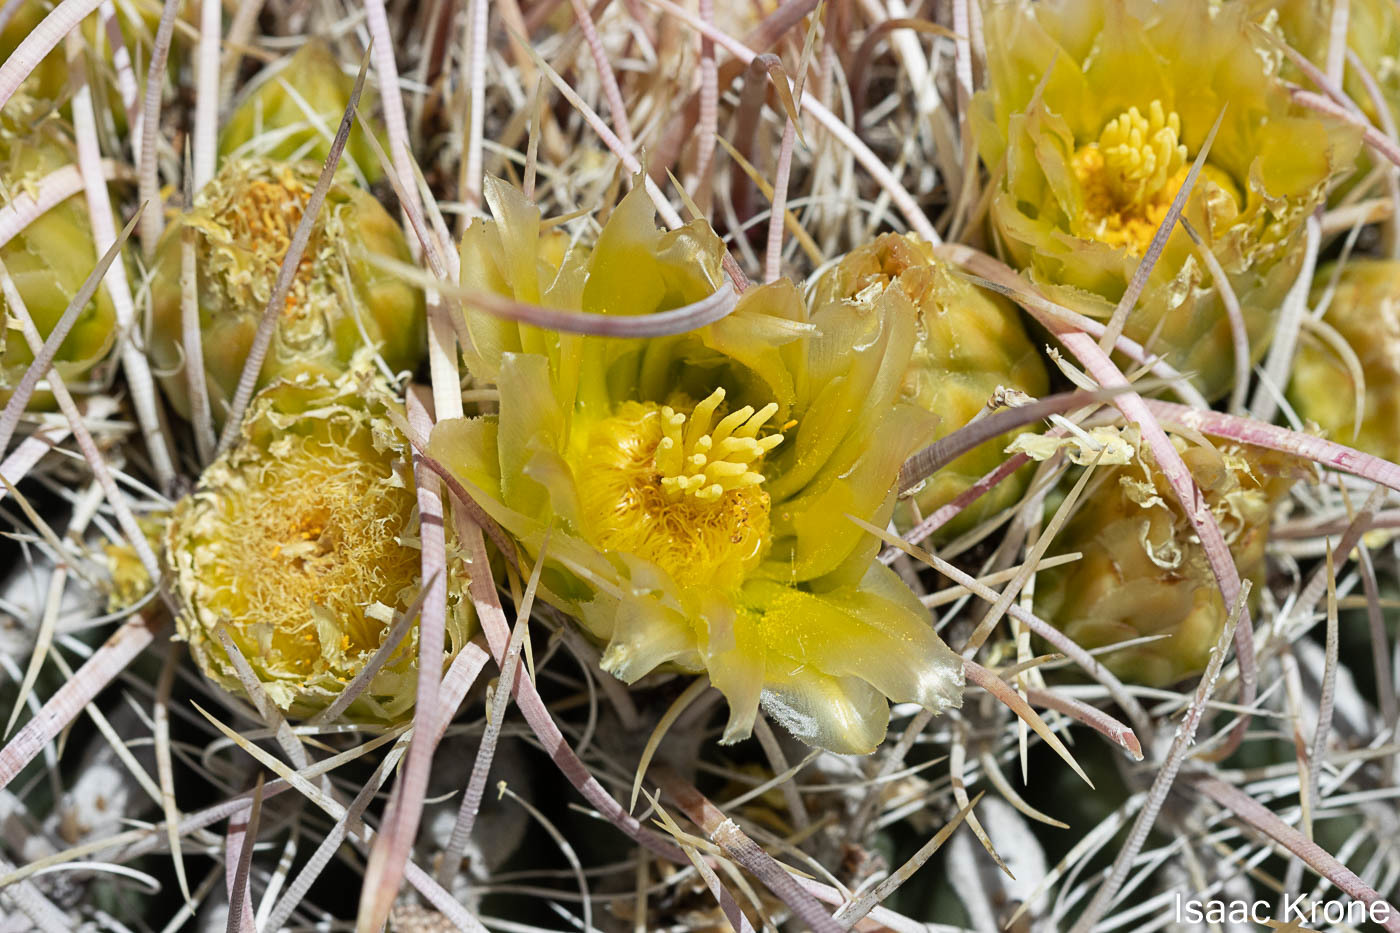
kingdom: Plantae
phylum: Tracheophyta
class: Magnoliopsida
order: Caryophyllales
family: Cactaceae
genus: Ferocactus
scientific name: Ferocactus cylindraceus
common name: California barrel cactus
